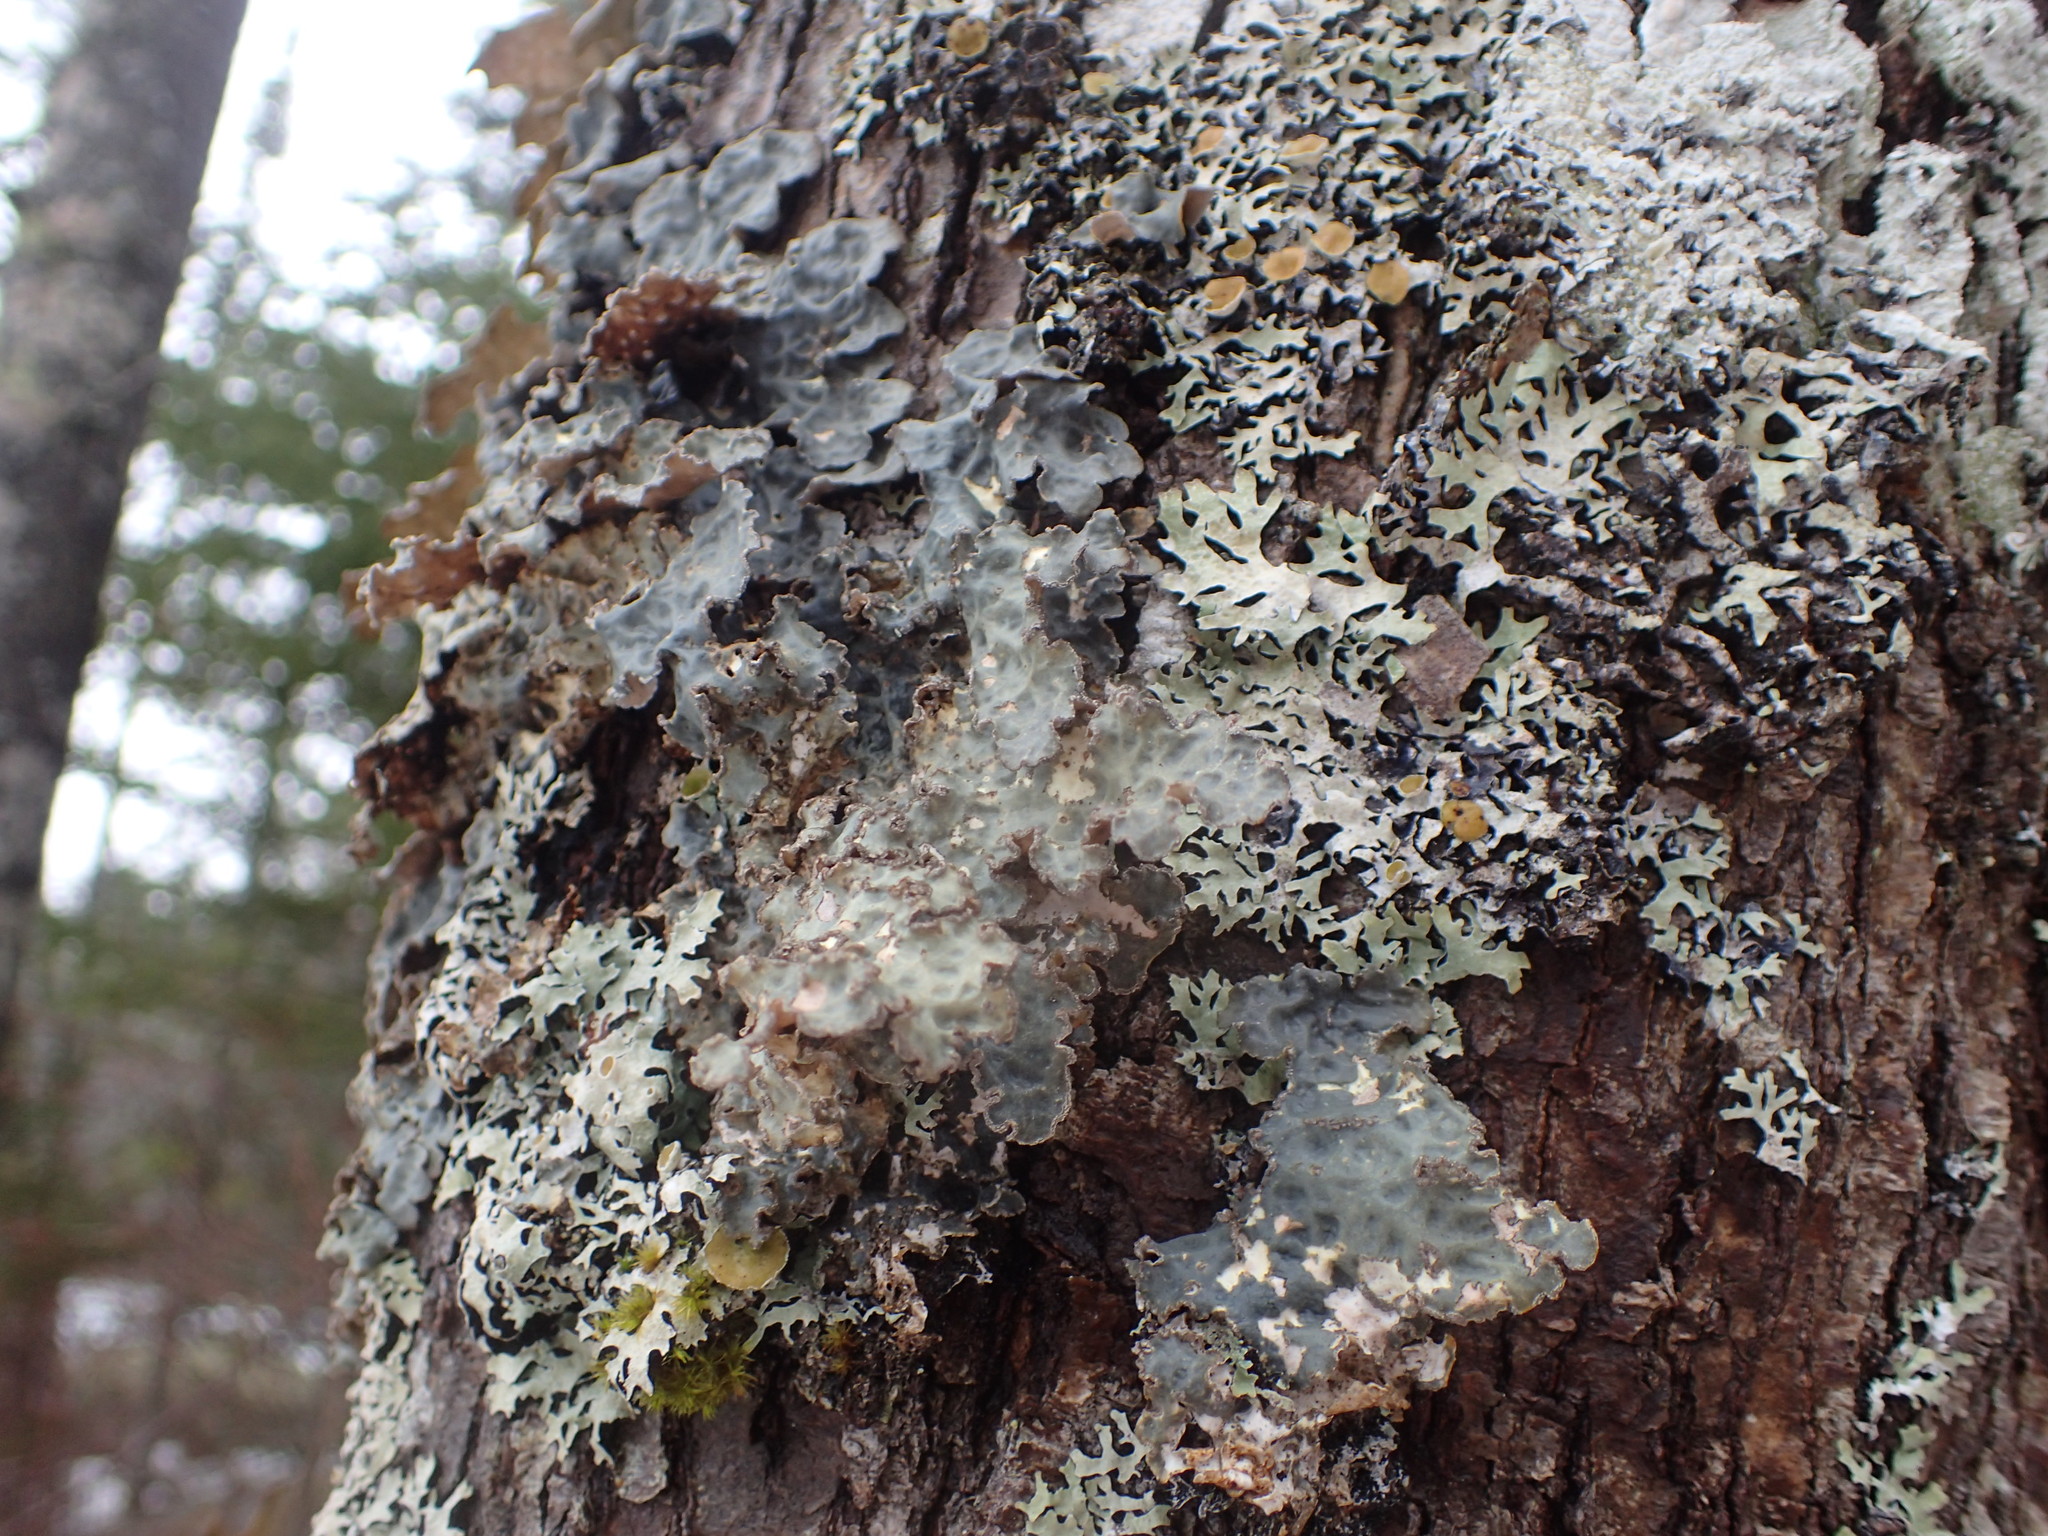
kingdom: Fungi
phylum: Ascomycota
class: Lecanoromycetes
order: Peltigerales
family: Lobariaceae
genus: Lobarina
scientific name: Lobarina scrobiculata
